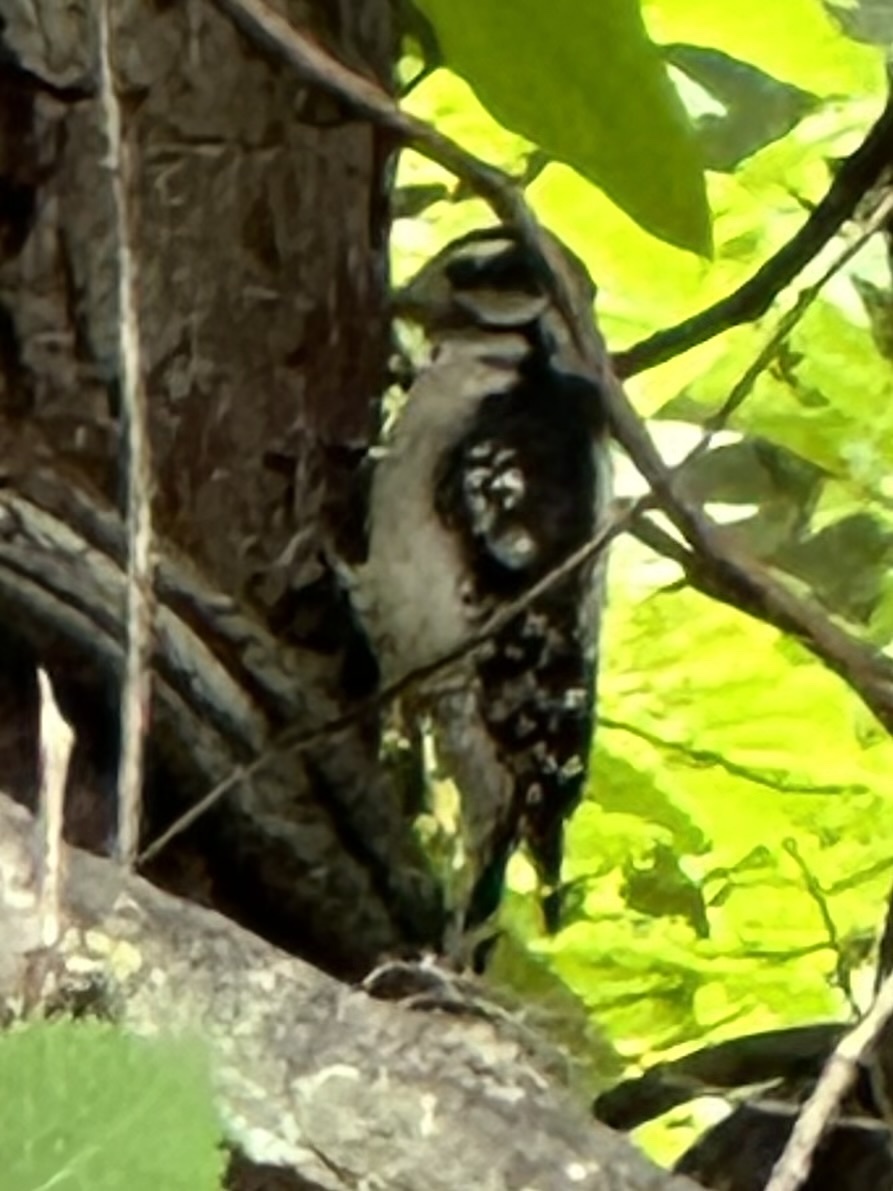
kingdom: Animalia
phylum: Chordata
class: Aves
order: Piciformes
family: Picidae
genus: Dryobates
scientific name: Dryobates pubescens
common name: Downy woodpecker
